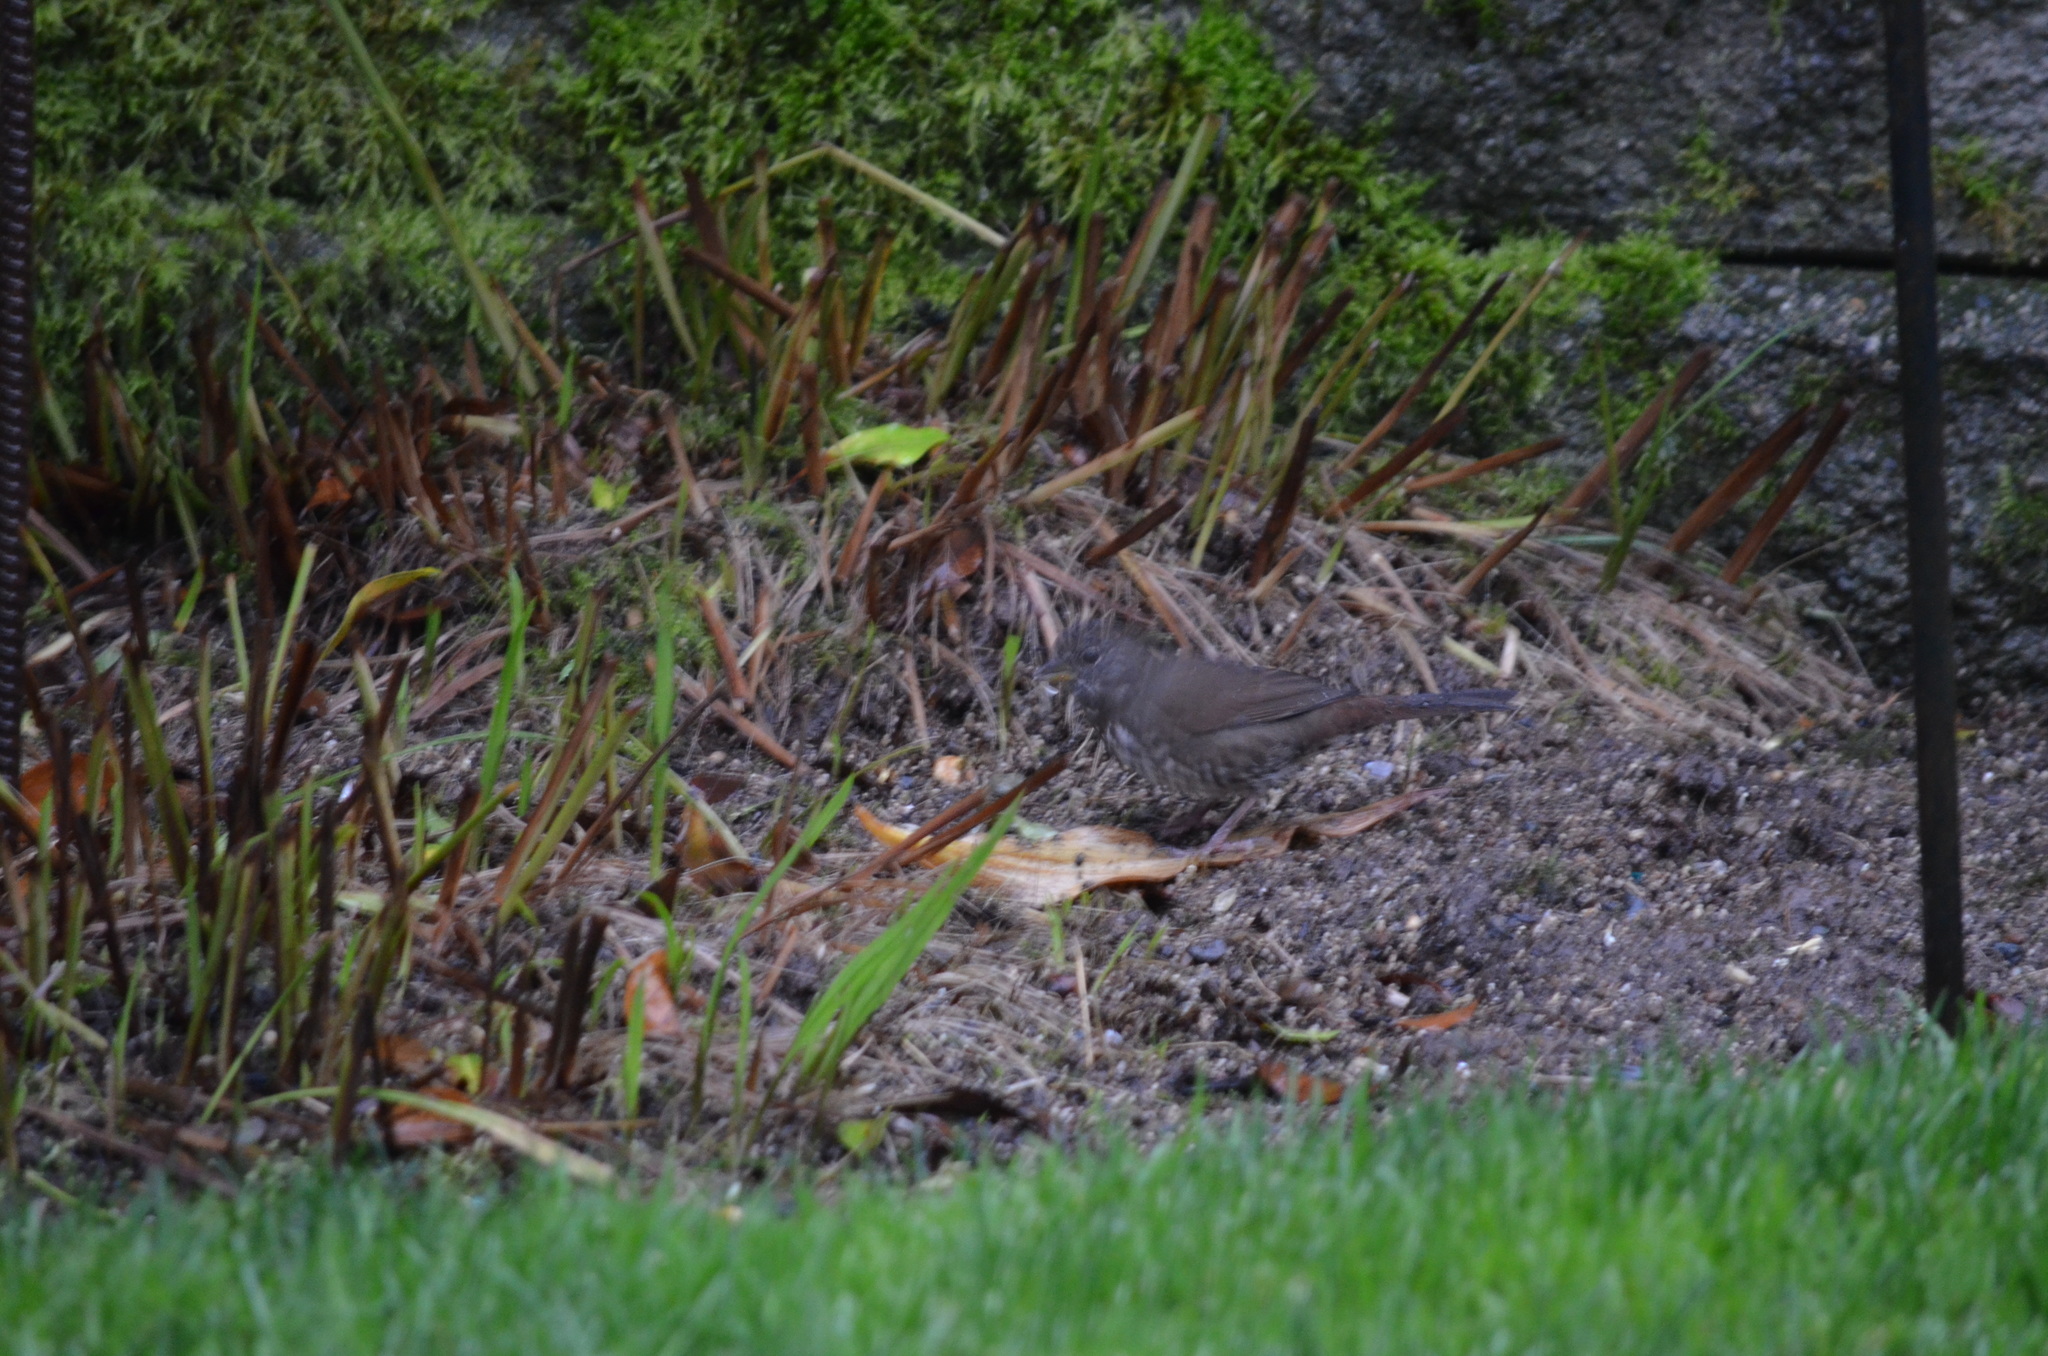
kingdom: Animalia
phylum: Chordata
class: Aves
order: Passeriformes
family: Passerellidae
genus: Passerella
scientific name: Passerella iliaca
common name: Fox sparrow
